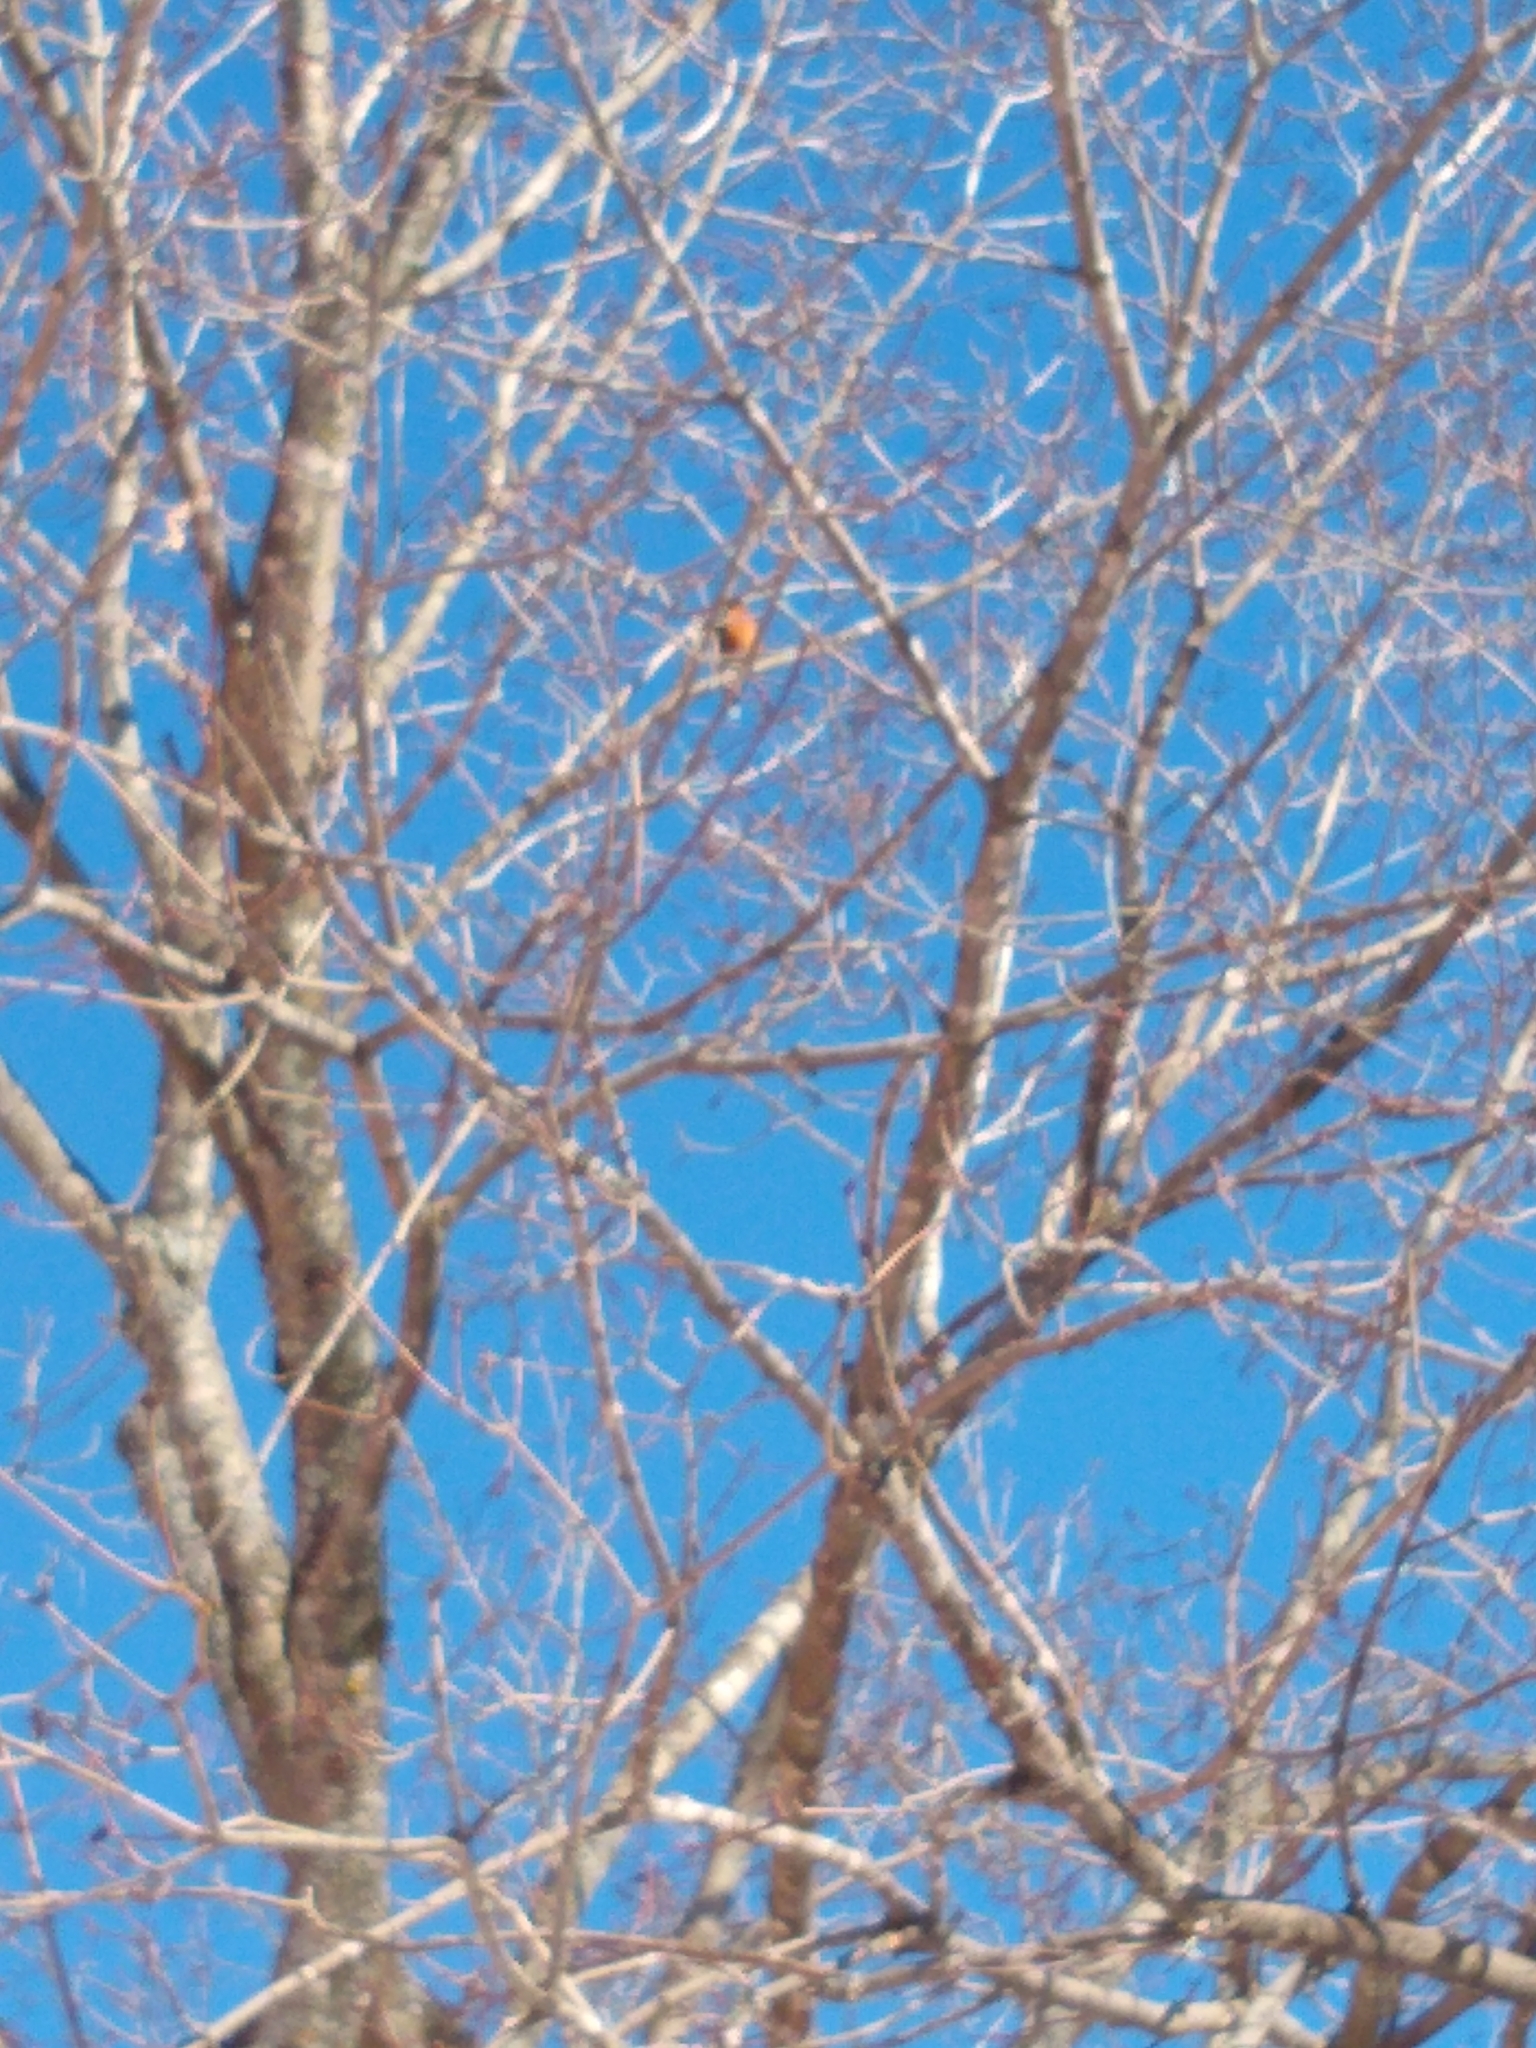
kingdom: Animalia
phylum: Chordata
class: Aves
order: Passeriformes
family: Turdidae
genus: Turdus
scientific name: Turdus migratorius
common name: American robin
